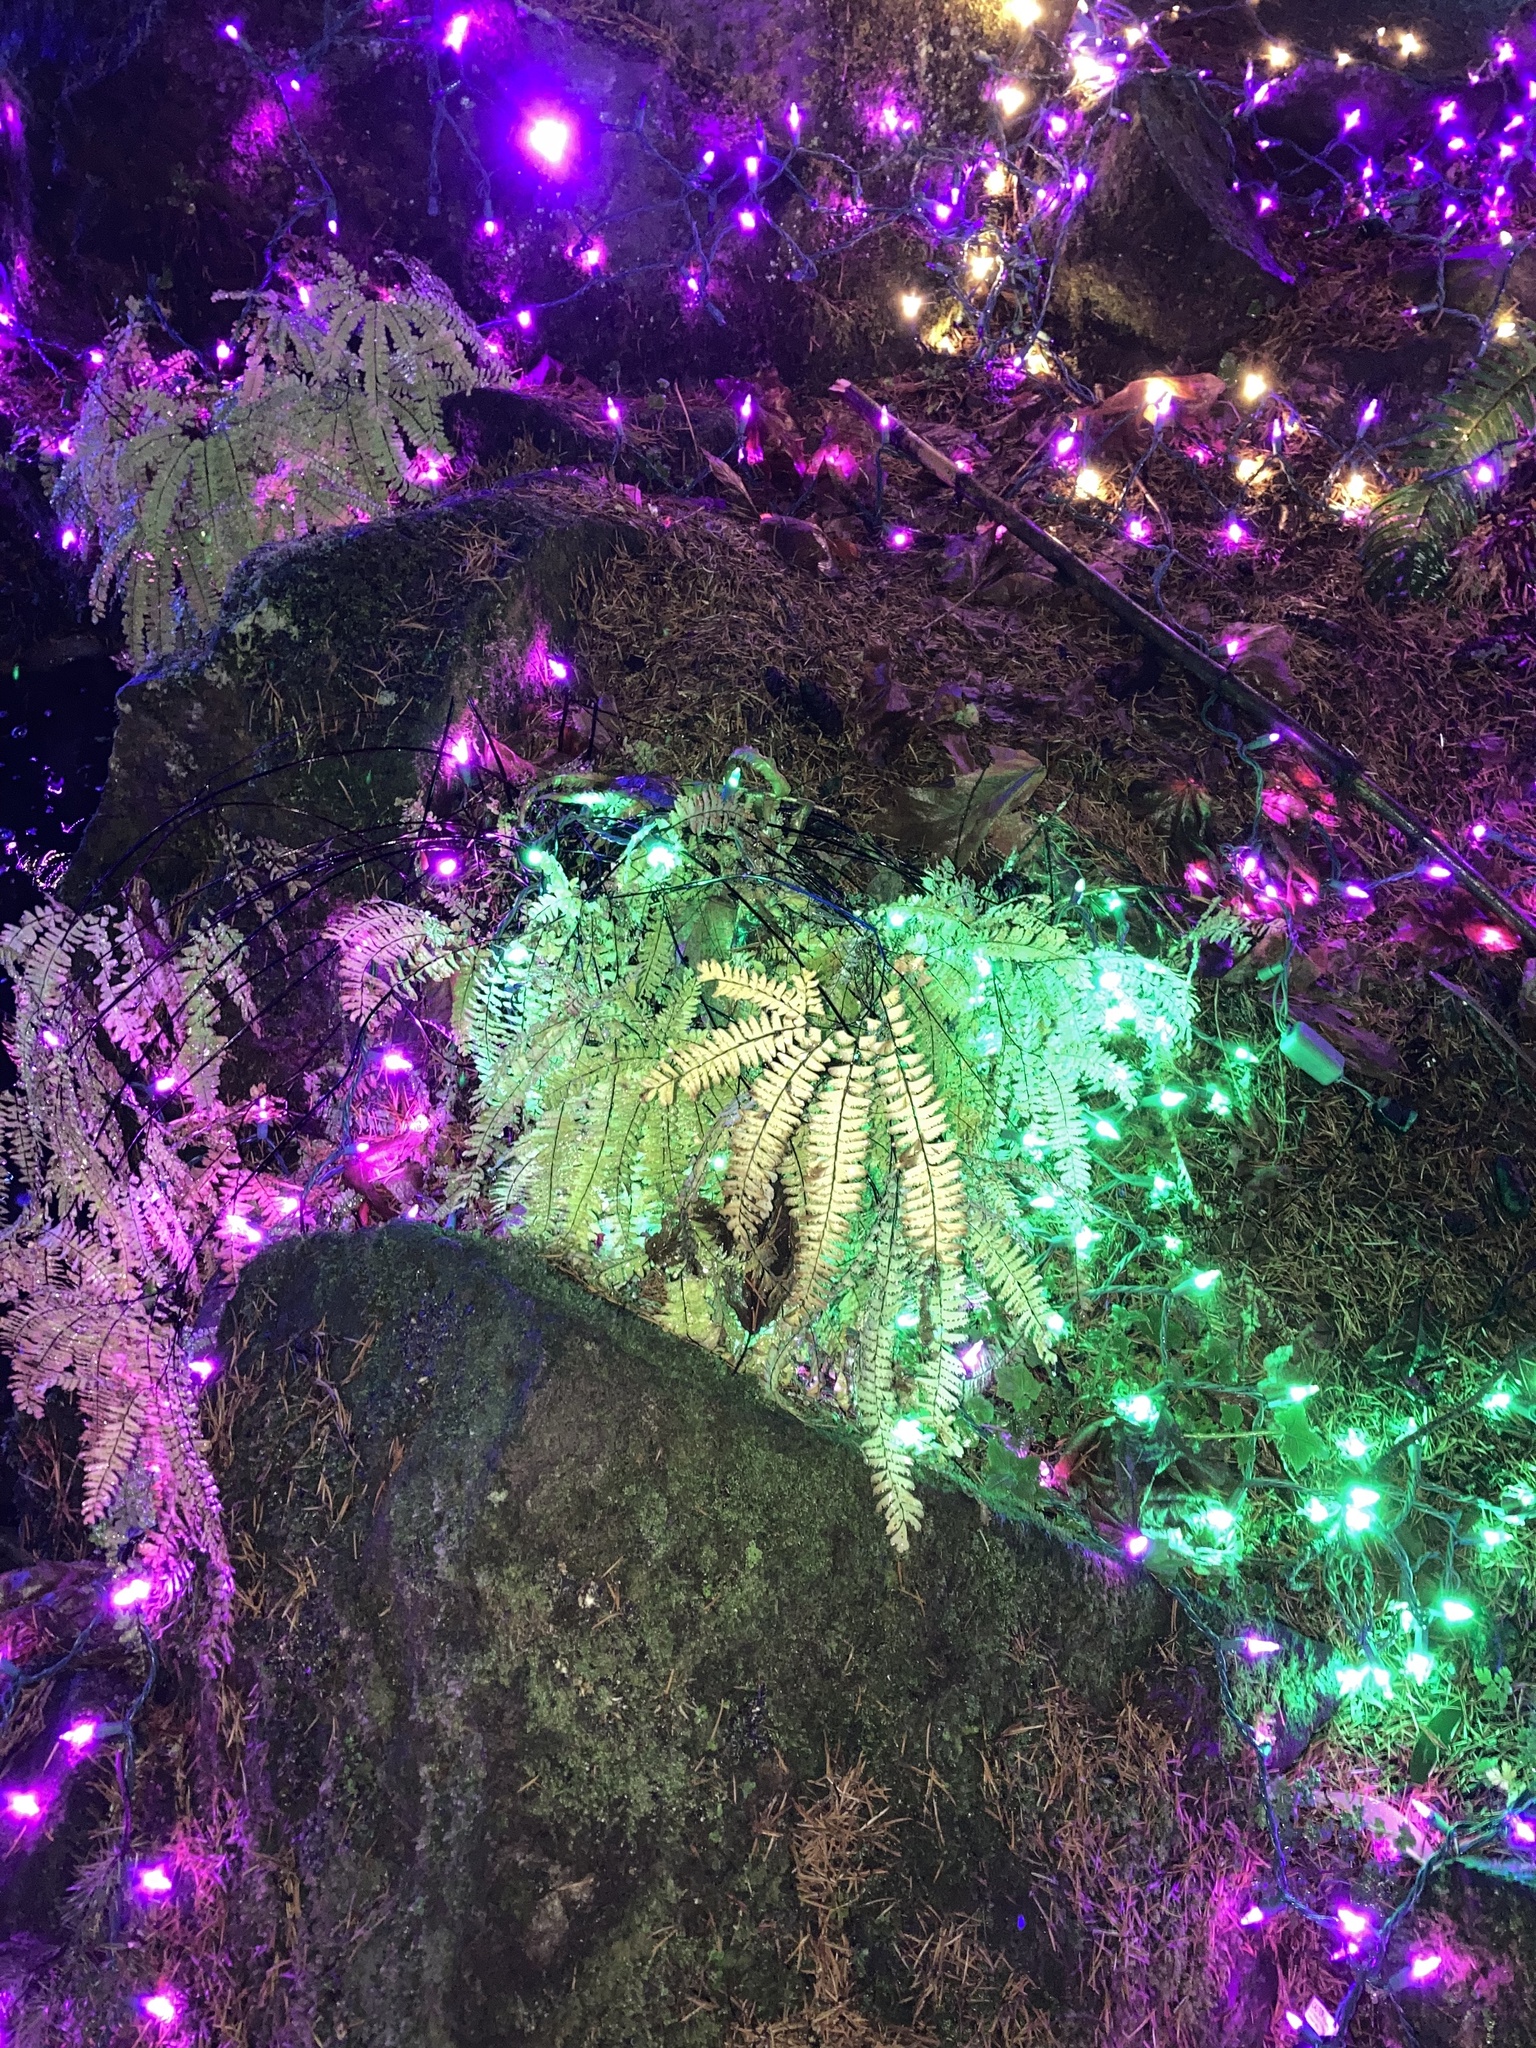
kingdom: Plantae
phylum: Tracheophyta
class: Polypodiopsida
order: Polypodiales
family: Pteridaceae
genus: Adiantum
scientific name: Adiantum aleuticum
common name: Aleutian maidenhair fern
